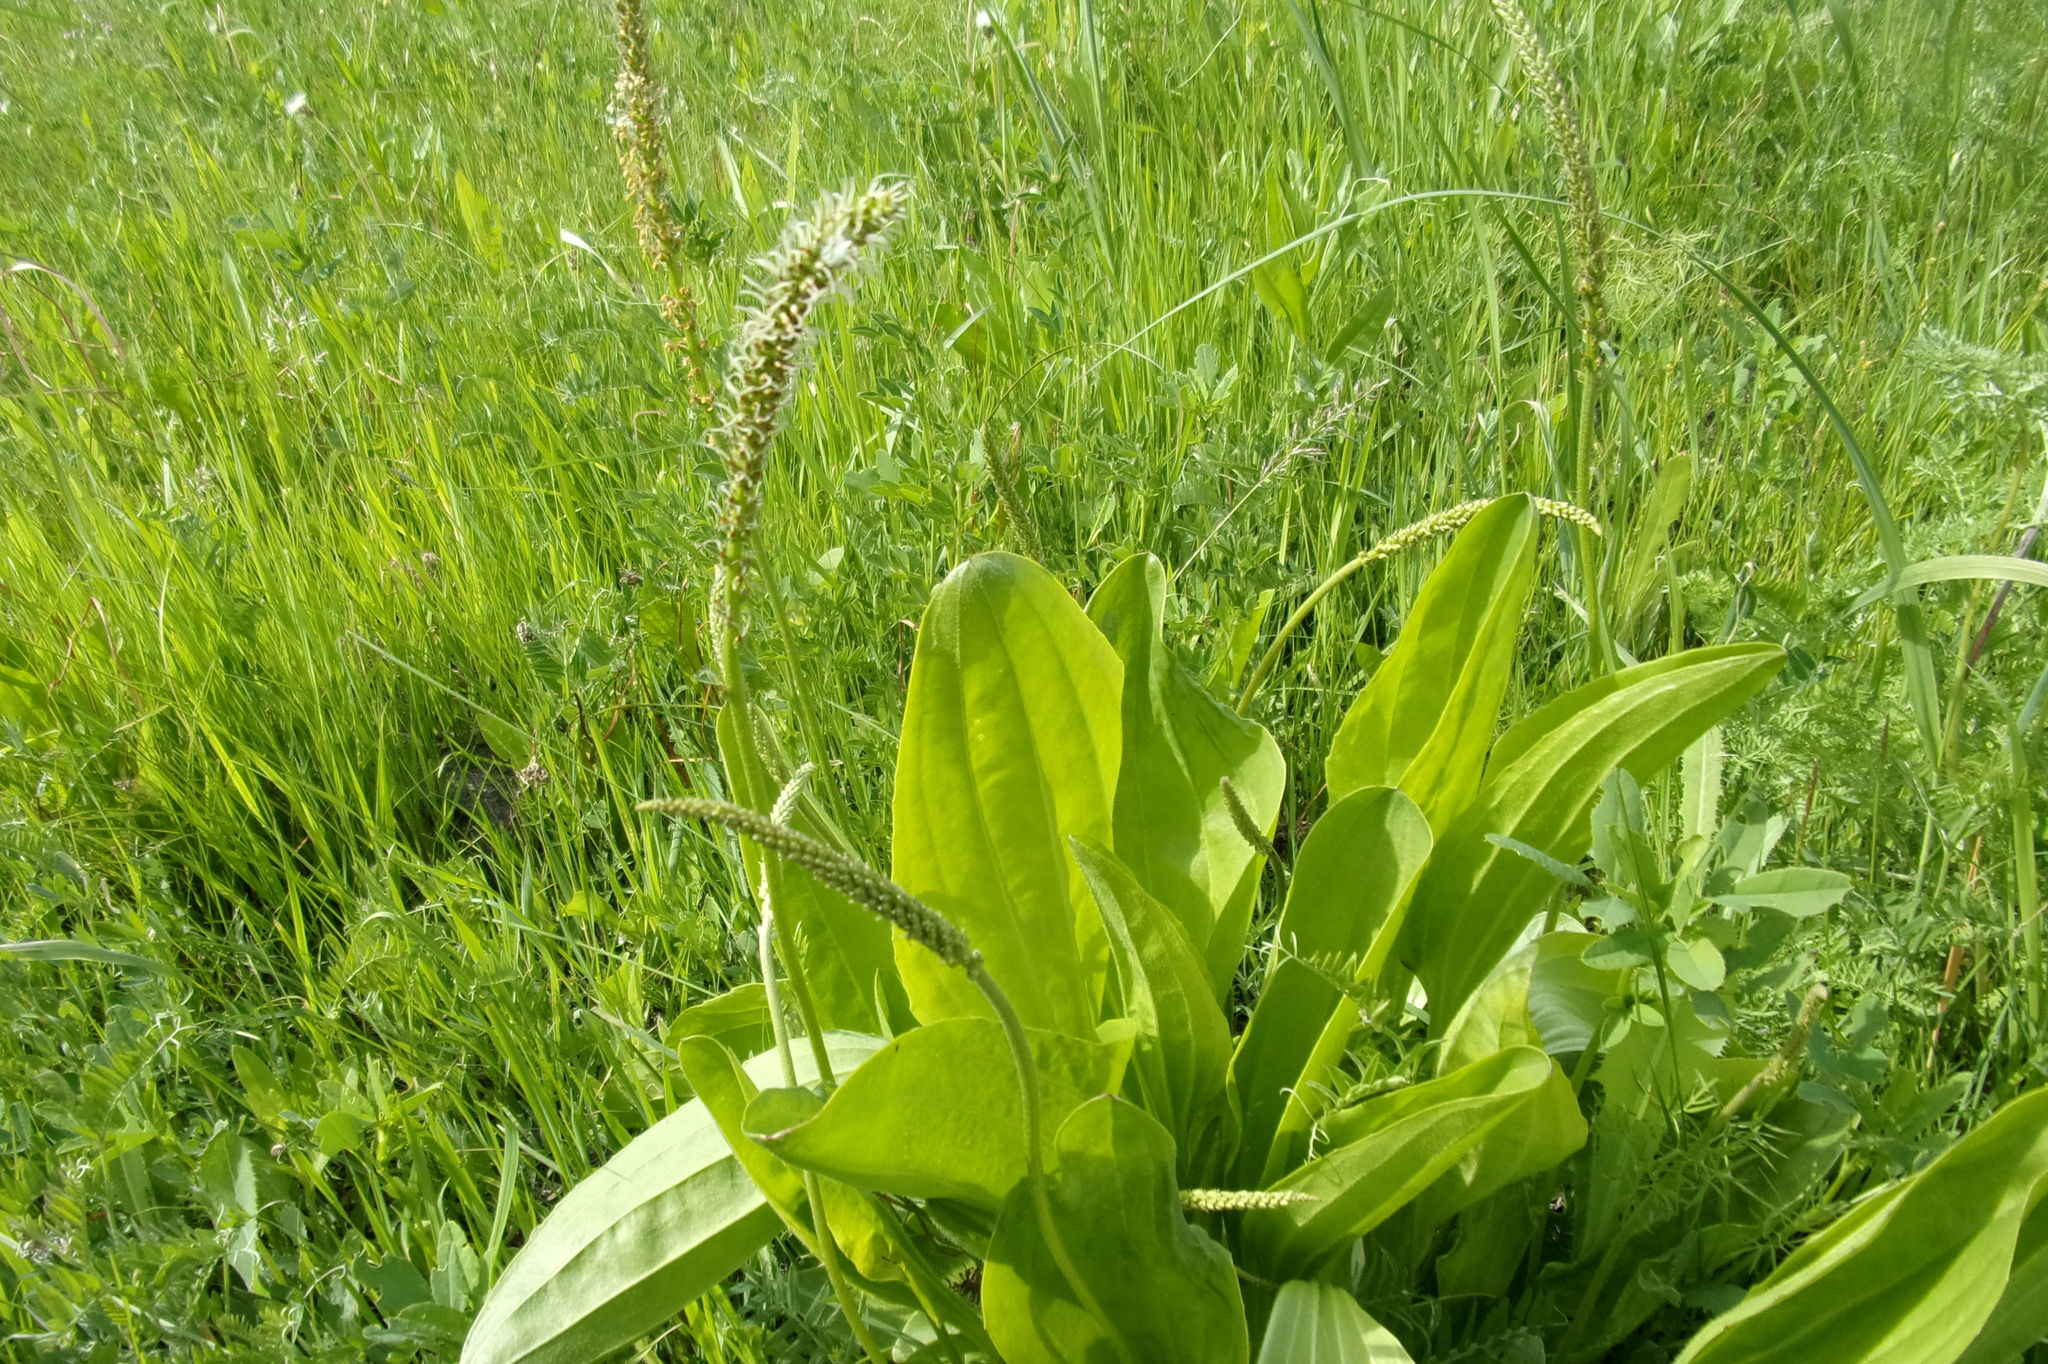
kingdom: Plantae
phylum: Tracheophyta
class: Magnoliopsida
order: Lamiales
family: Plantaginaceae
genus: Plantago
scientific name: Plantago cornuti
